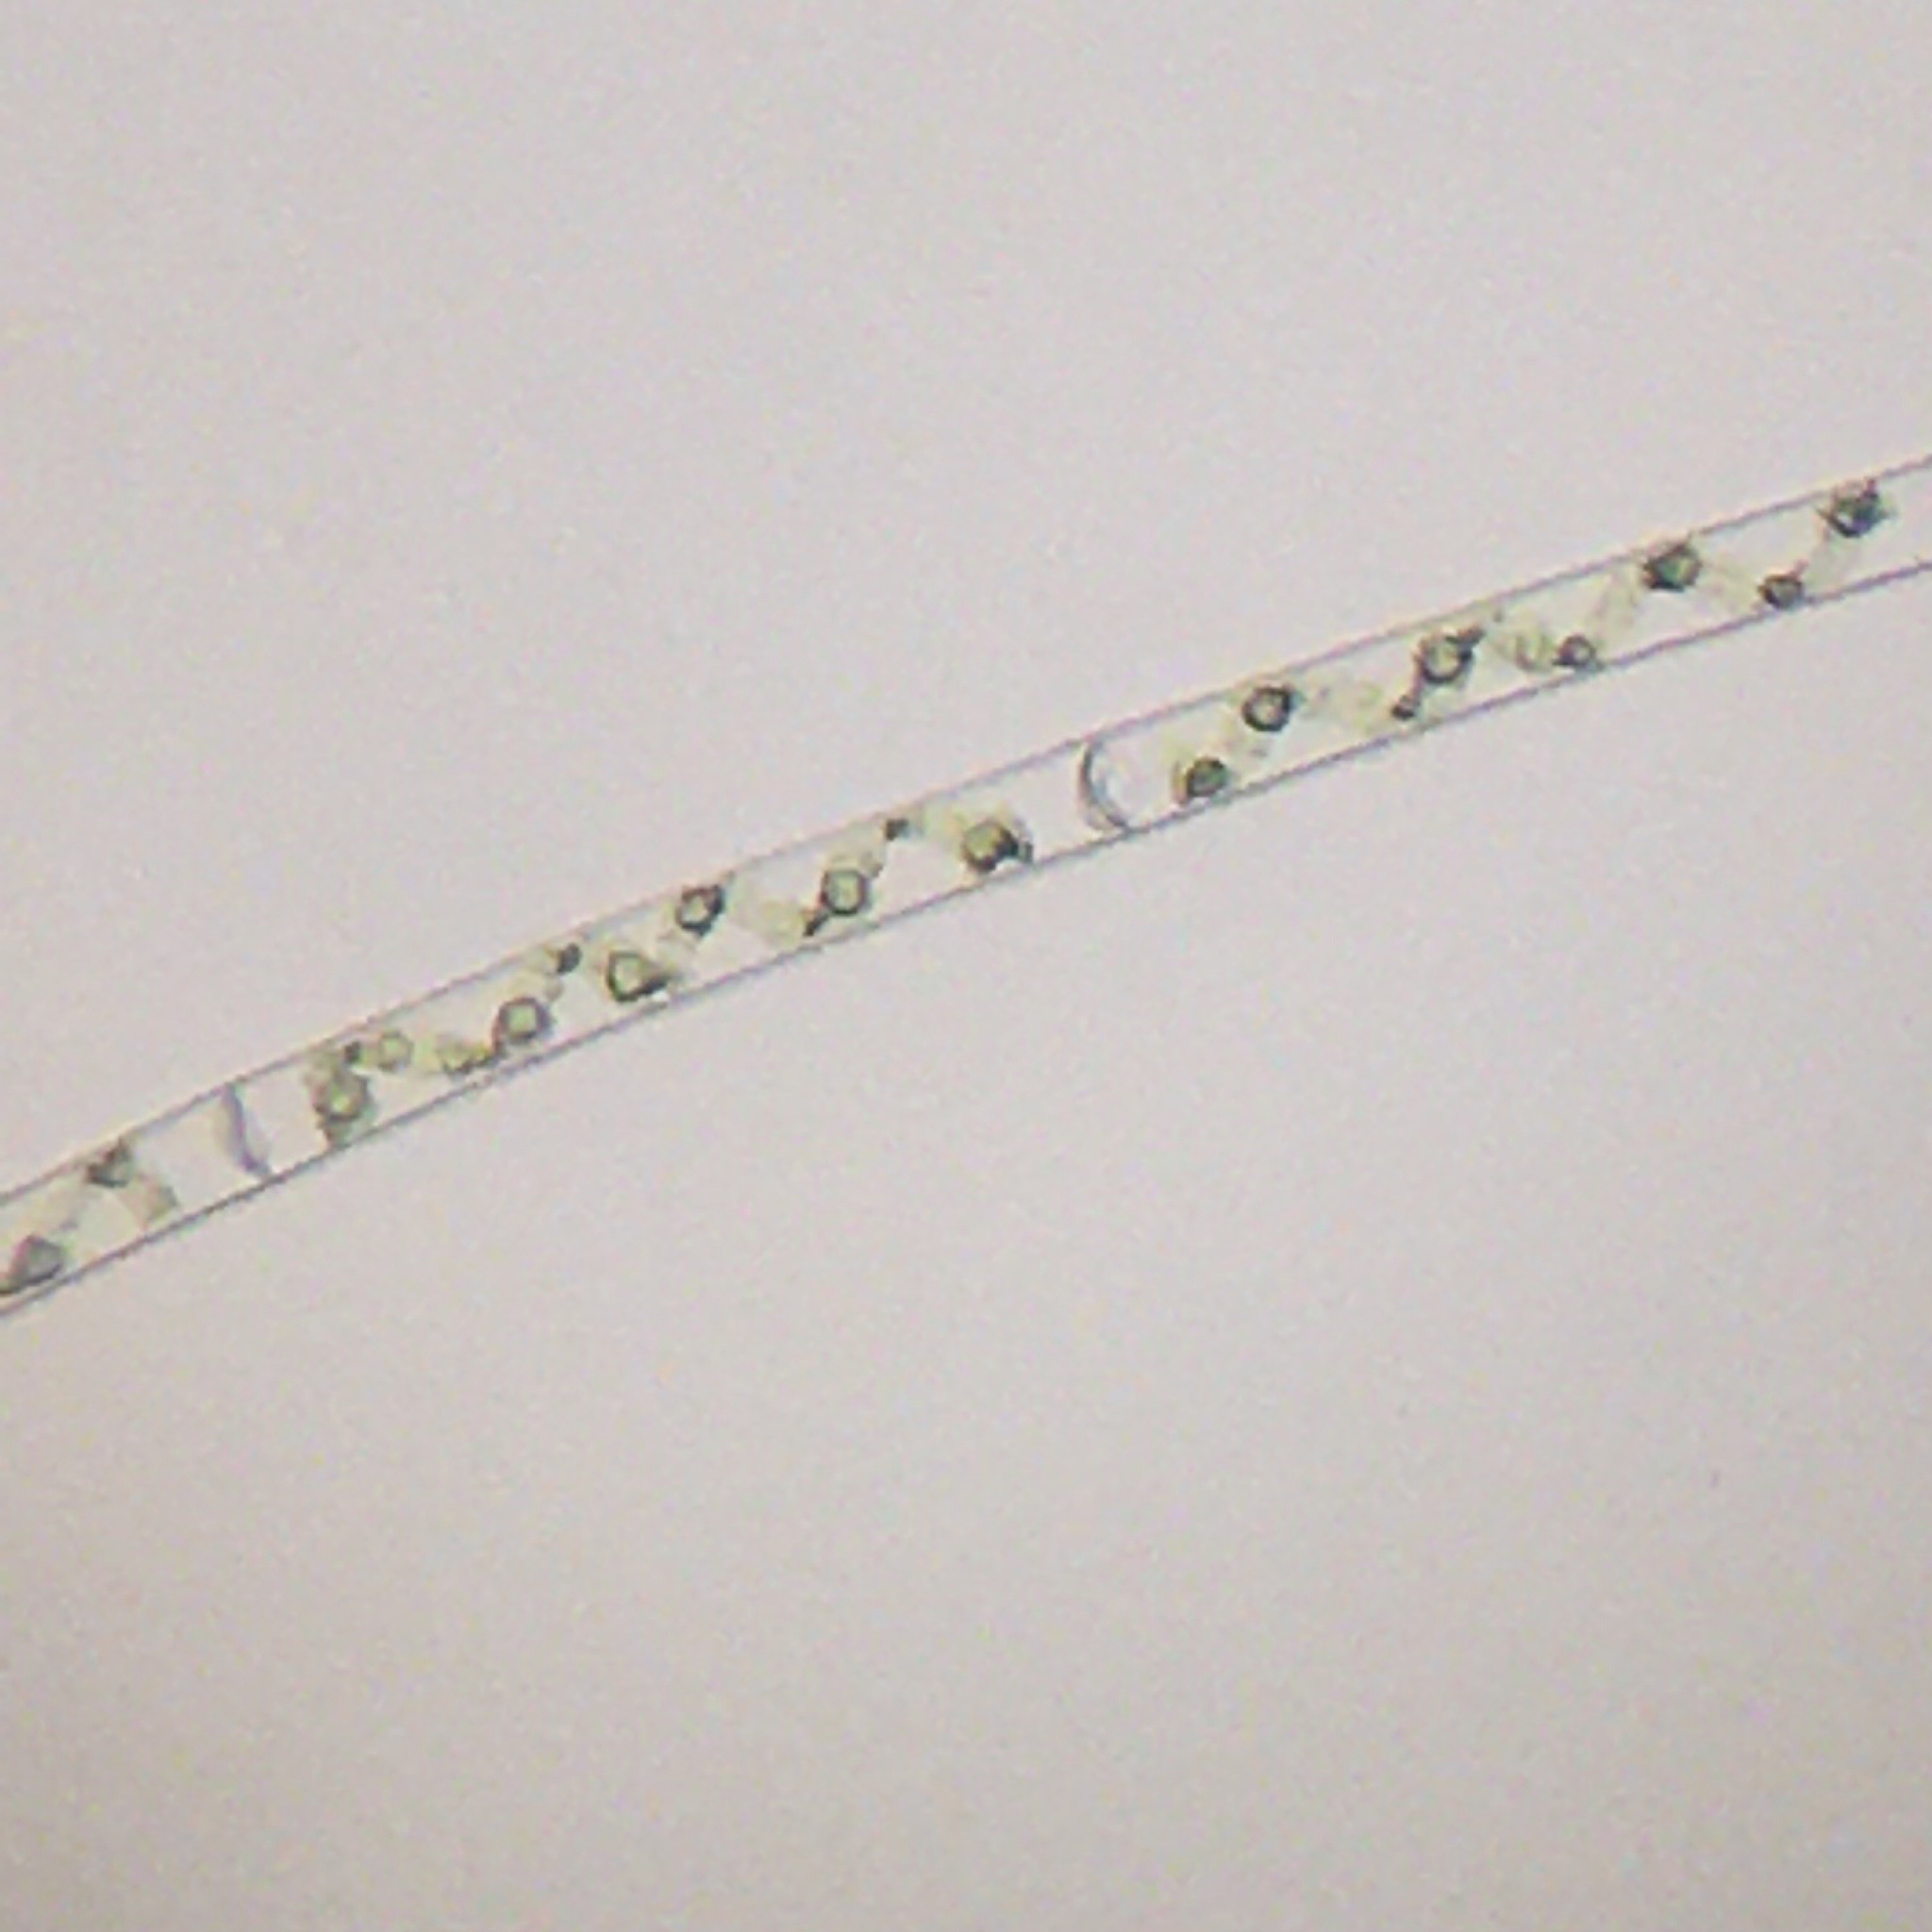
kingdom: Plantae
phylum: Charophyta
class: Zygnematophyceae
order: Zygnematales
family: Zygnemataceae
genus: Spirogyra
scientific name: Spirogyra
